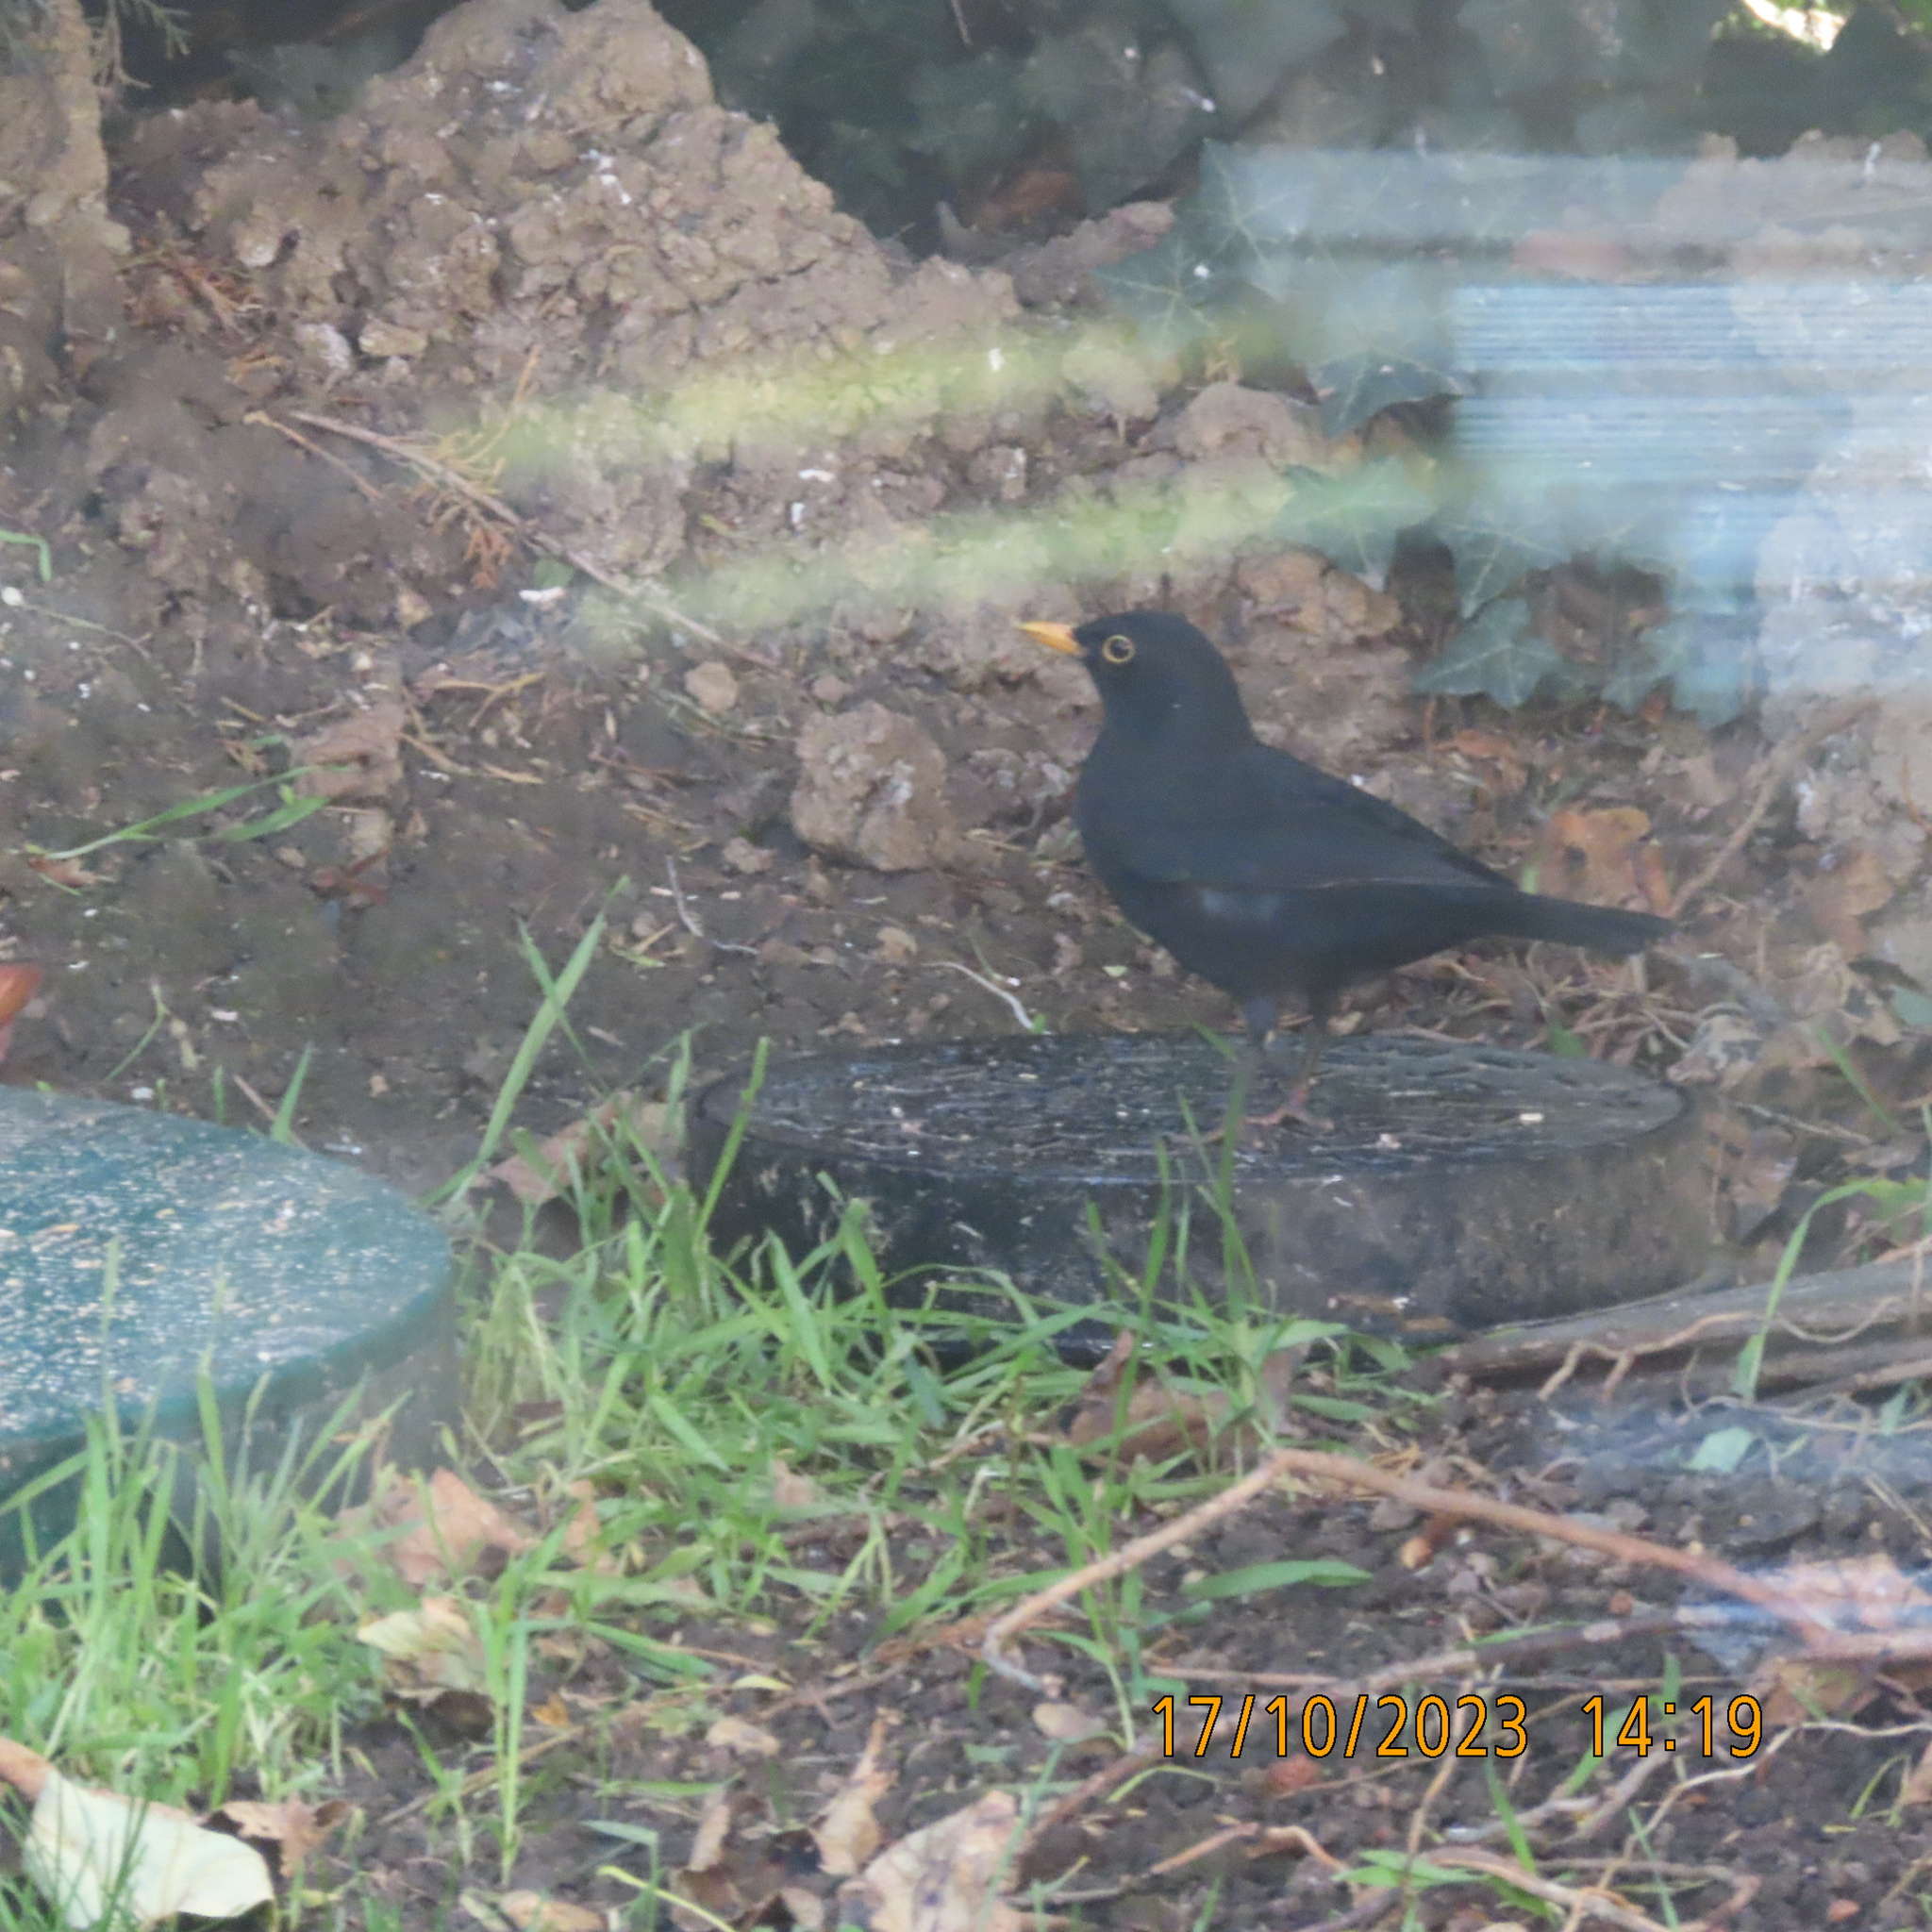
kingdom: Animalia
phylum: Chordata
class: Aves
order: Passeriformes
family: Turdidae
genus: Turdus
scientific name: Turdus merula
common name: Common blackbird
